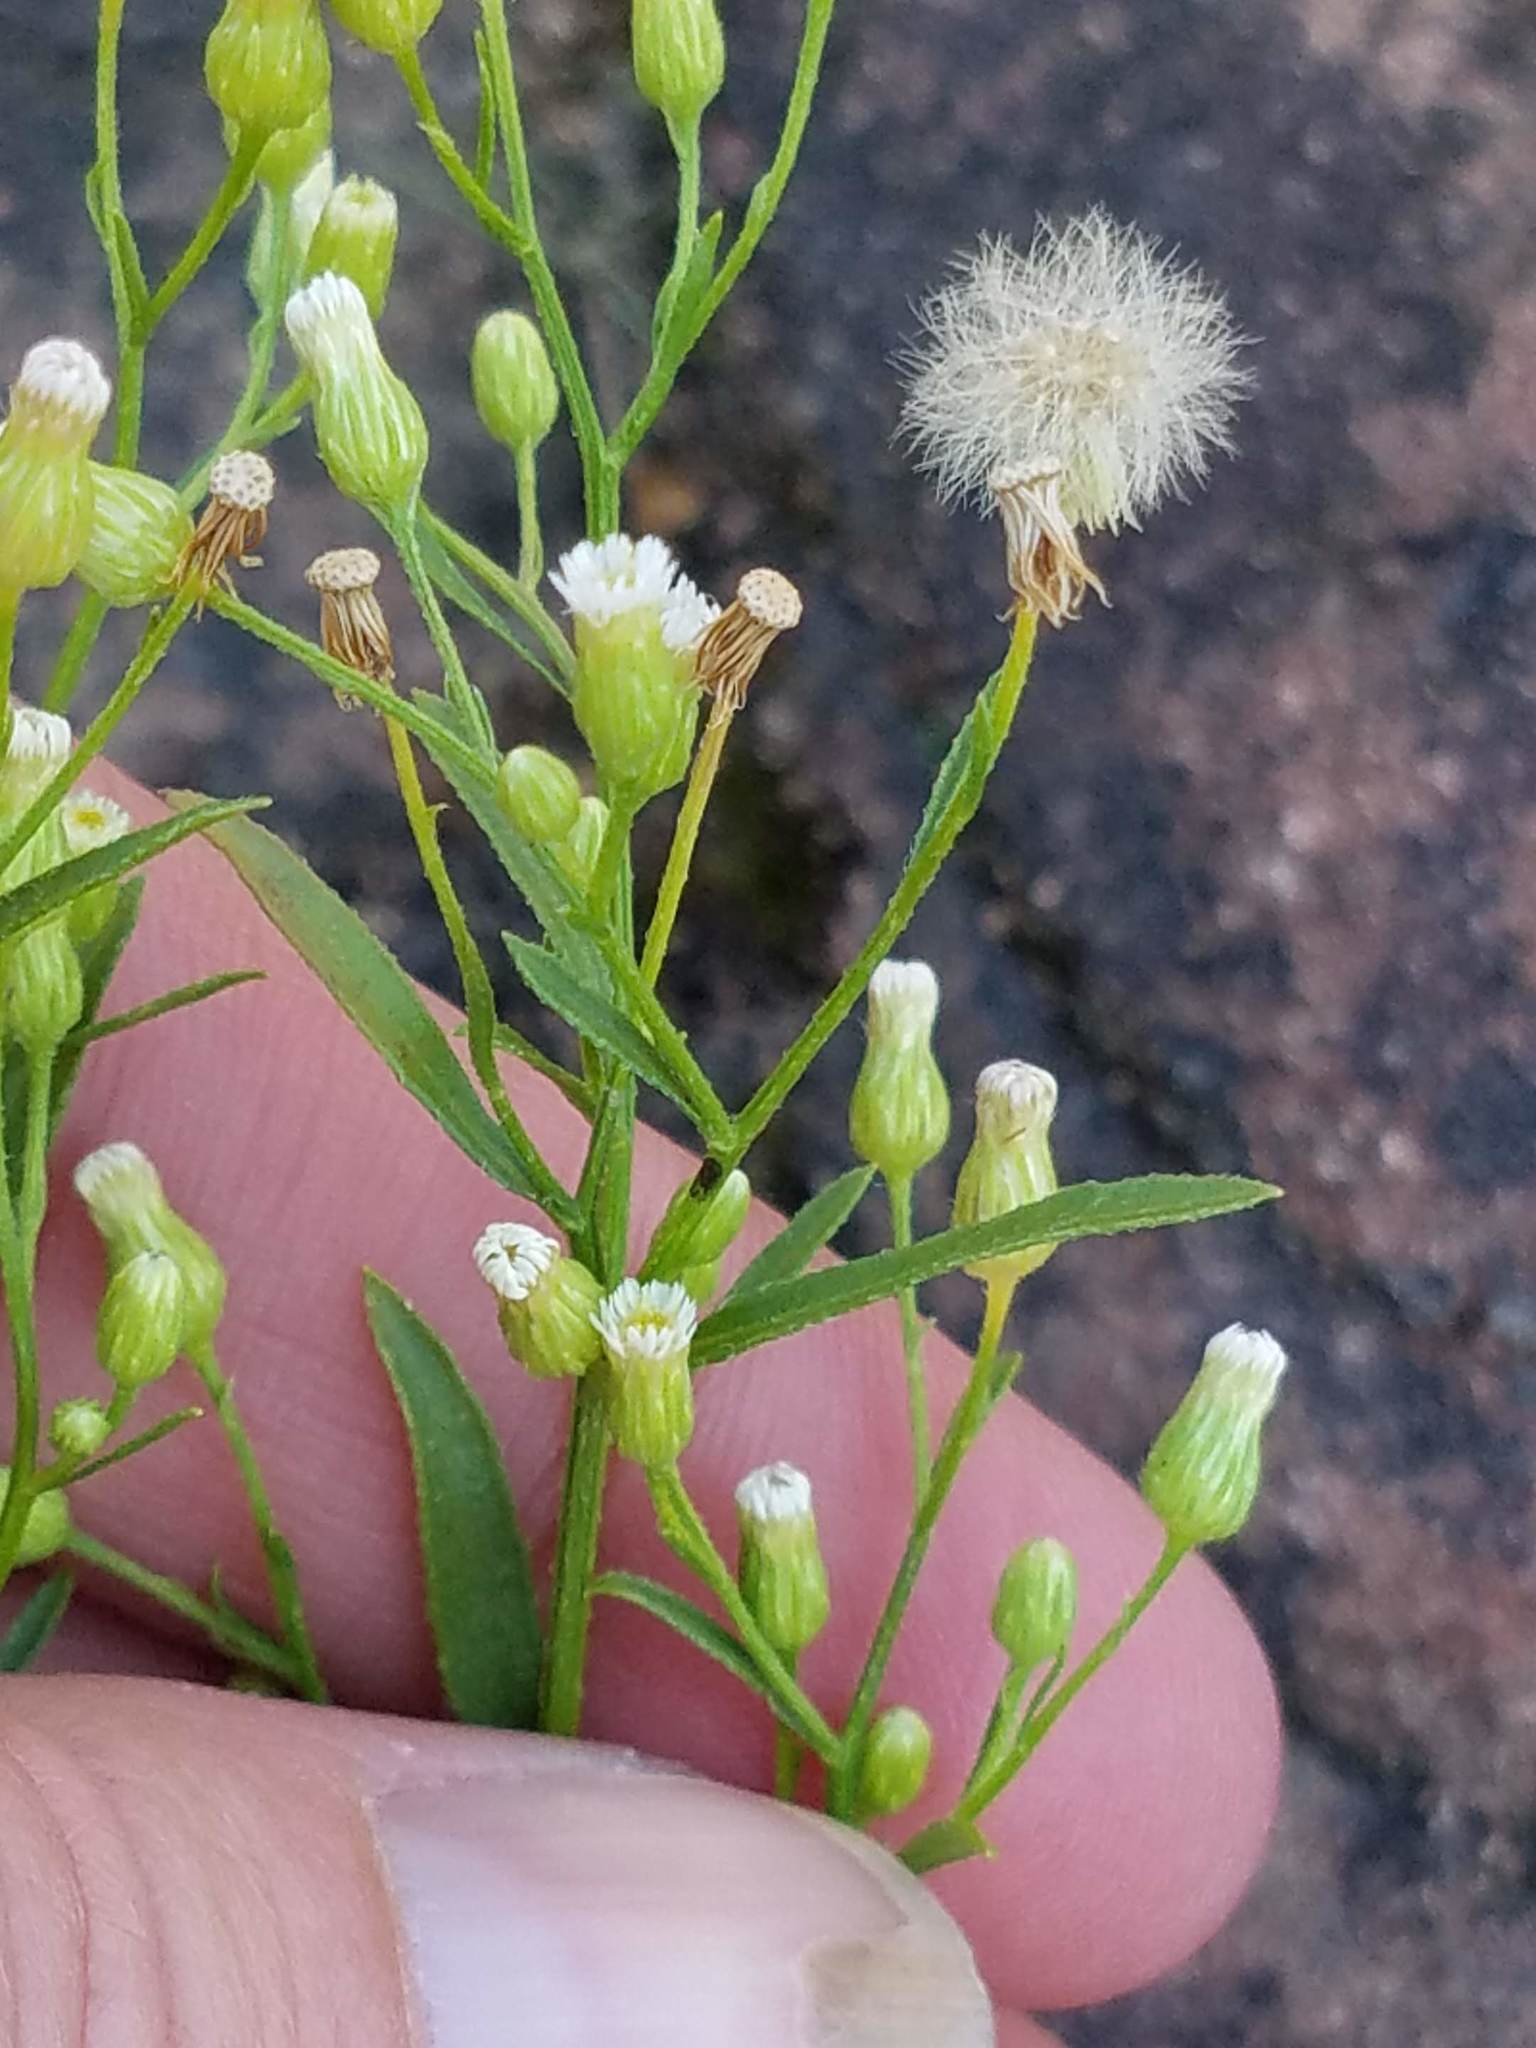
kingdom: Plantae
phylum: Tracheophyta
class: Magnoliopsida
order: Asterales
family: Asteraceae
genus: Erigeron
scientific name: Erigeron canadensis
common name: Canadian fleabane
